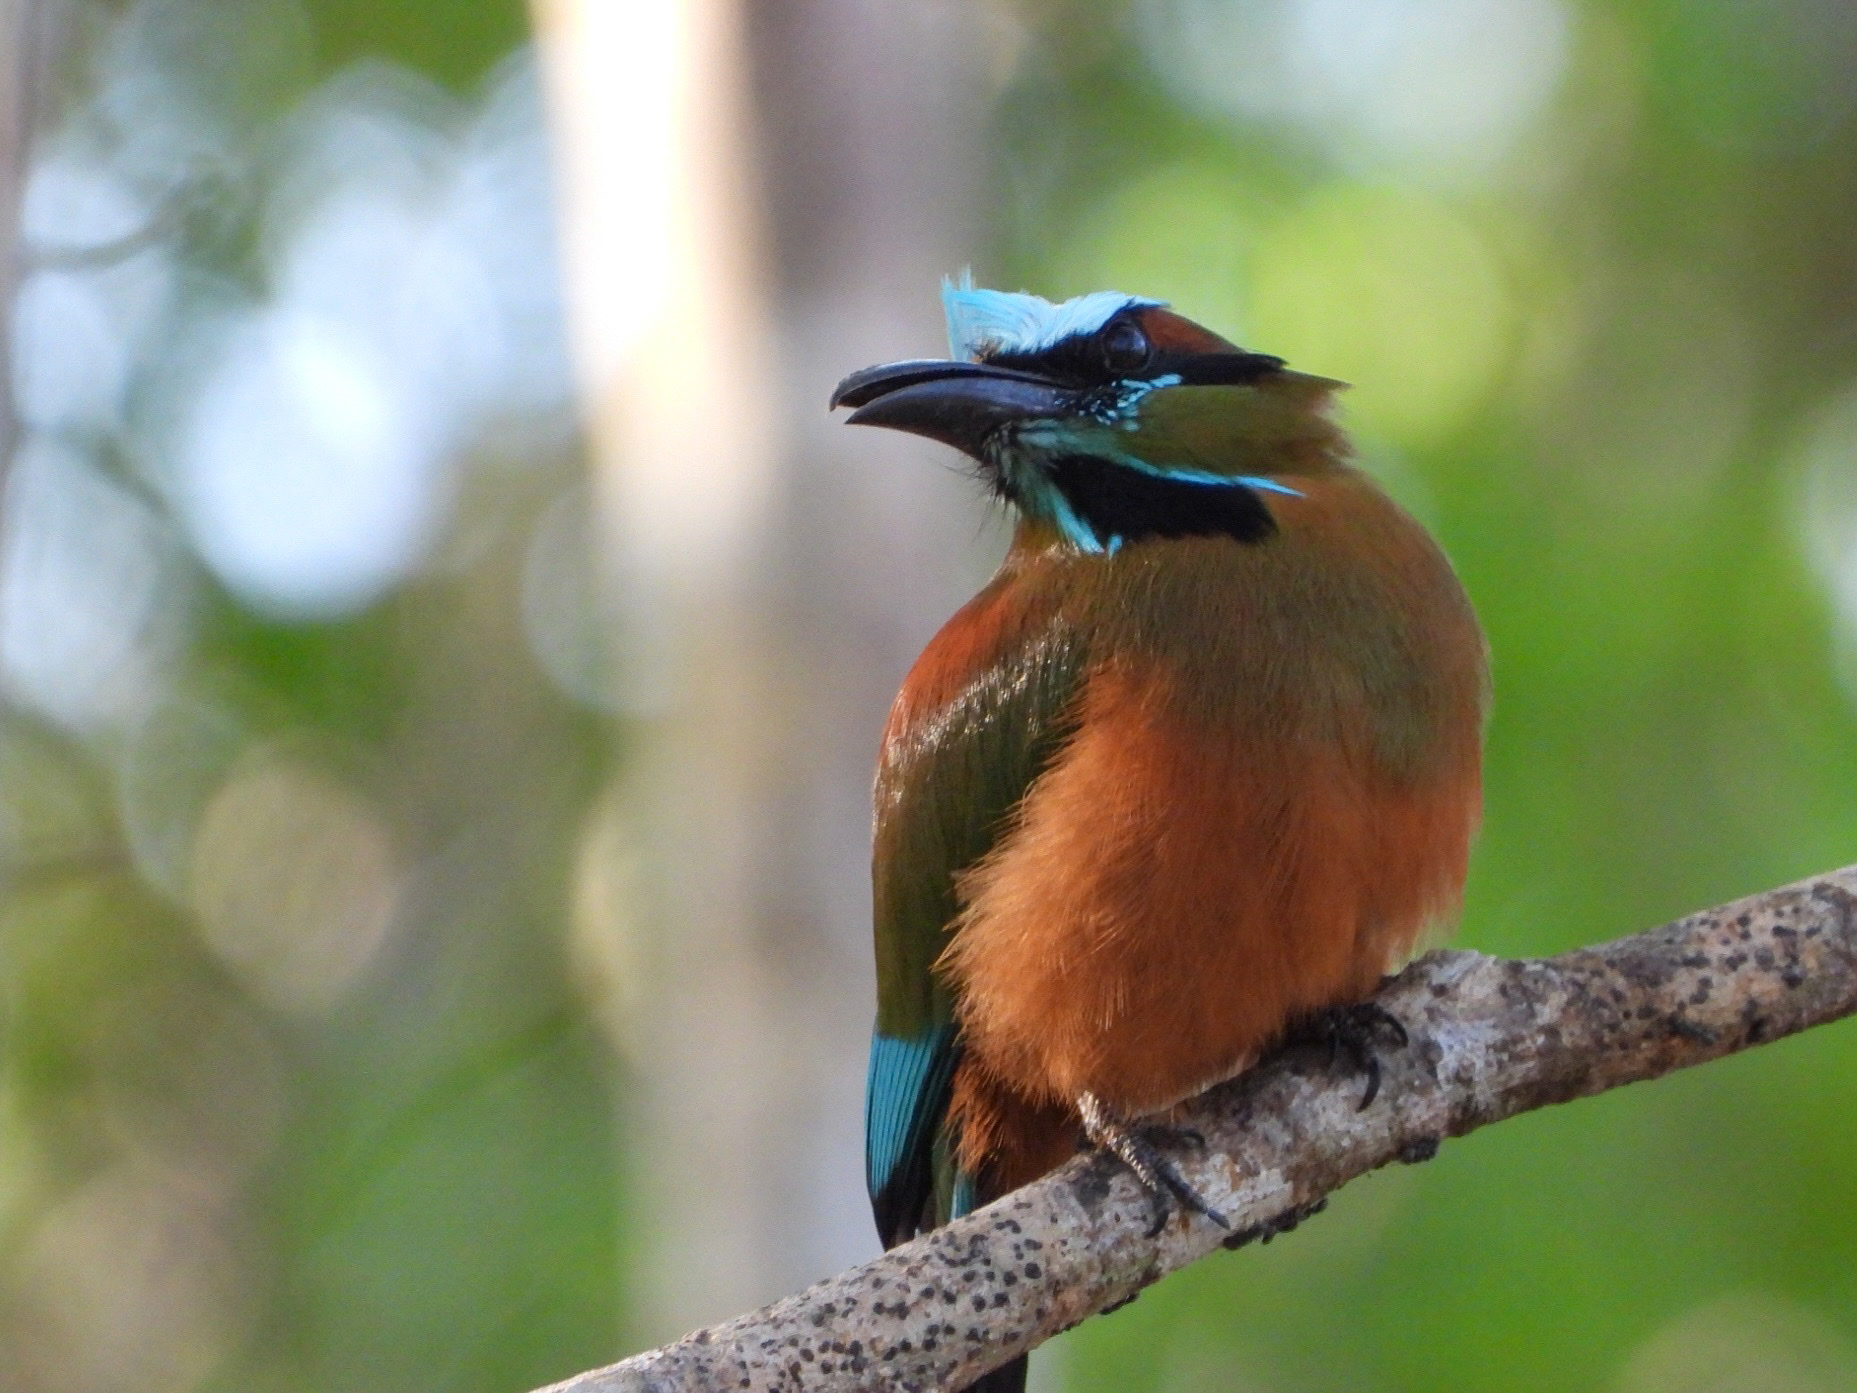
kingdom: Animalia
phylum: Chordata
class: Aves
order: Coraciiformes
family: Momotidae
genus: Eumomota
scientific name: Eumomota superciliosa
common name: Turquoise-browed motmot
